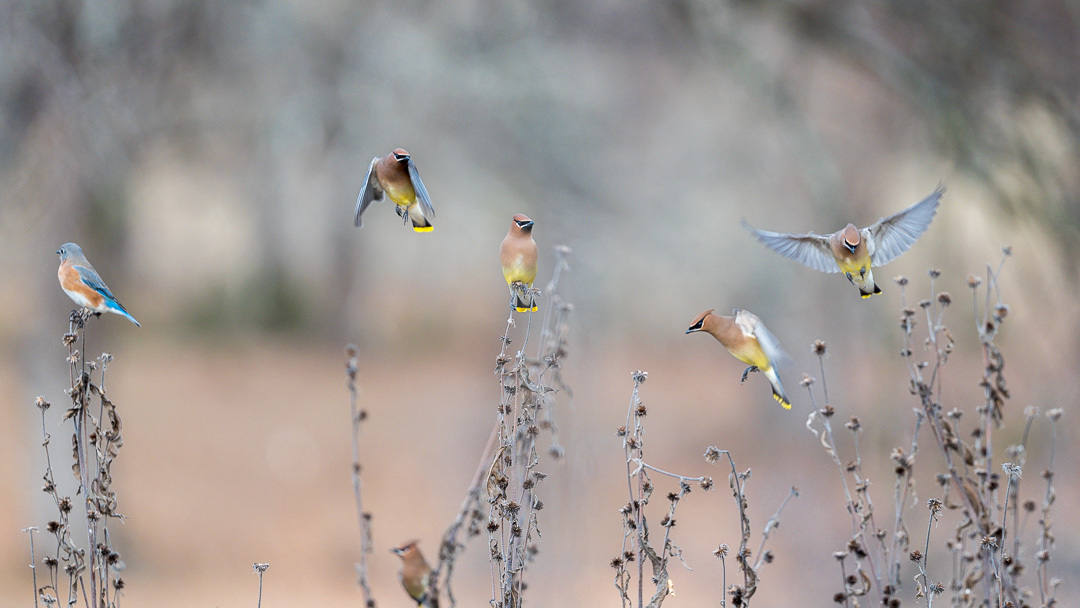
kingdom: Animalia
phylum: Chordata
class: Aves
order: Passeriformes
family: Bombycillidae
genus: Bombycilla
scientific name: Bombycilla cedrorum
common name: Cedar waxwing
